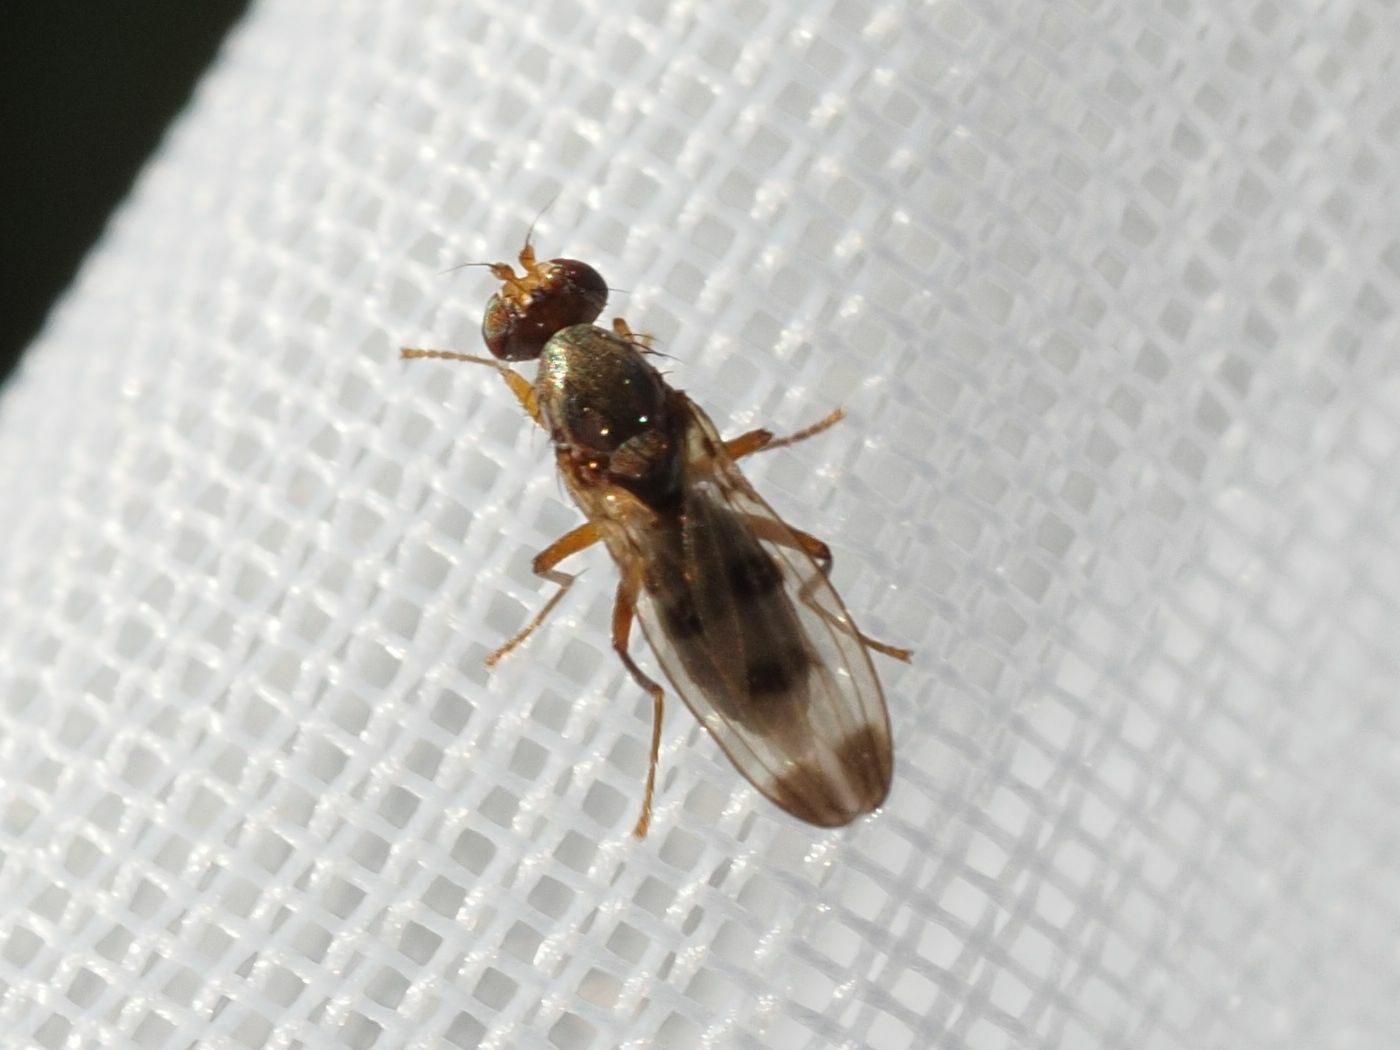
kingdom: Animalia
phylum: Arthropoda
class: Insecta
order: Diptera
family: Opomyzidae
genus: Geomyza
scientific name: Geomyza tripunctata
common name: Cereal fly
